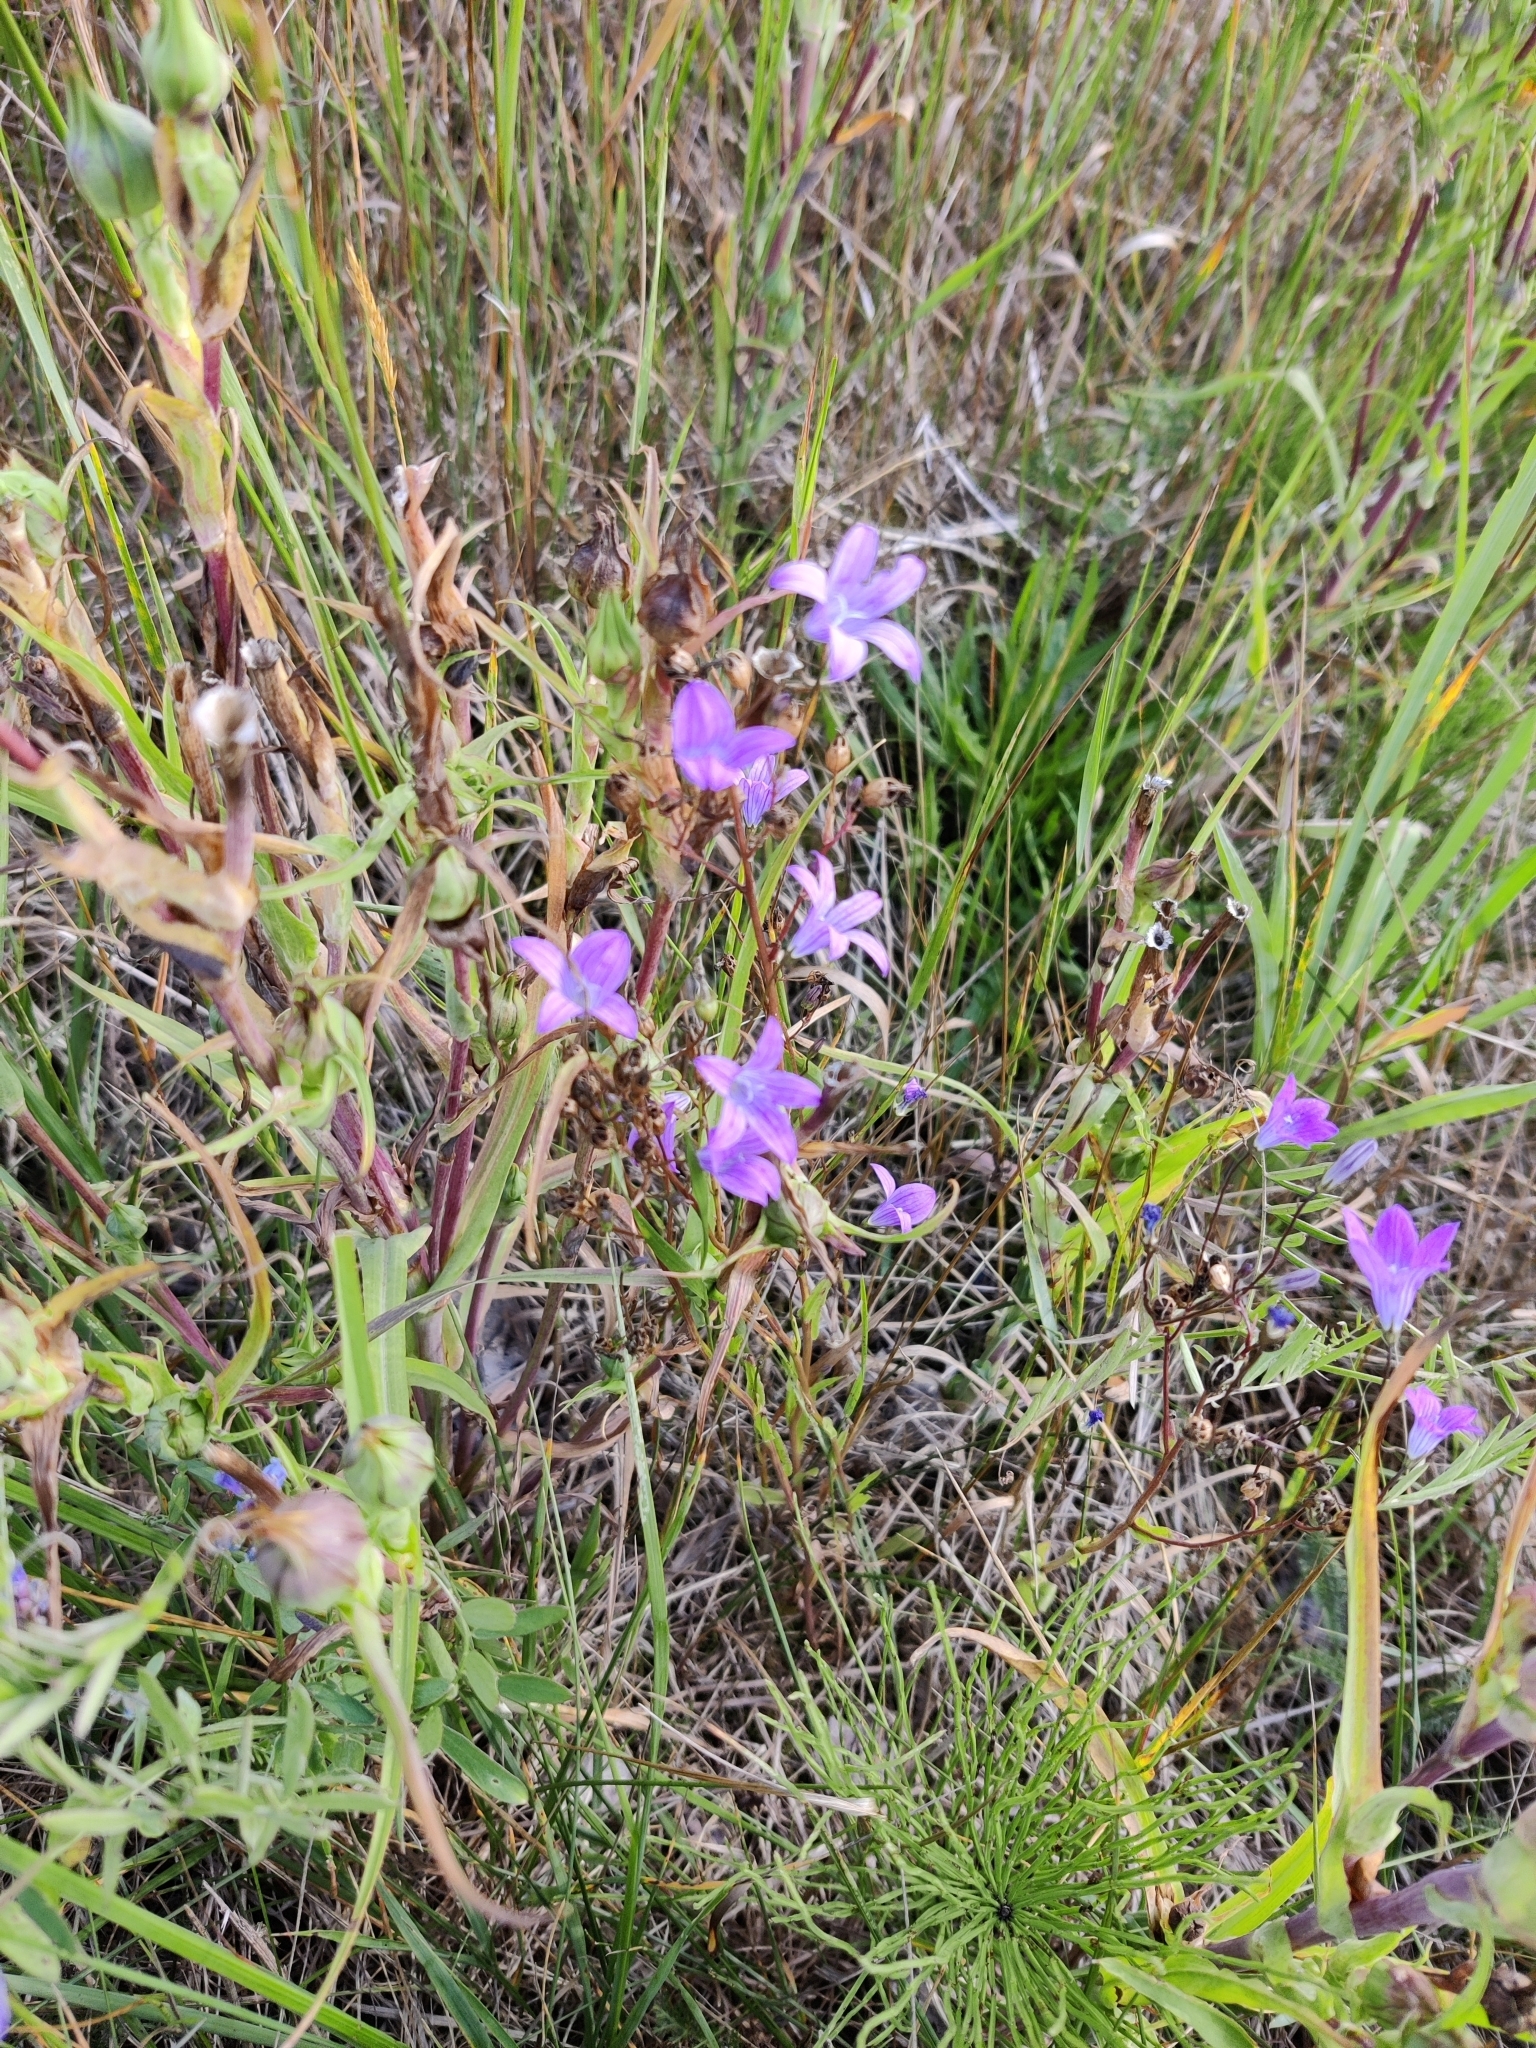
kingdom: Plantae
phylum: Tracheophyta
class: Magnoliopsida
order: Asterales
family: Campanulaceae
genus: Campanula
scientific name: Campanula patula
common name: Spreading bellflower
